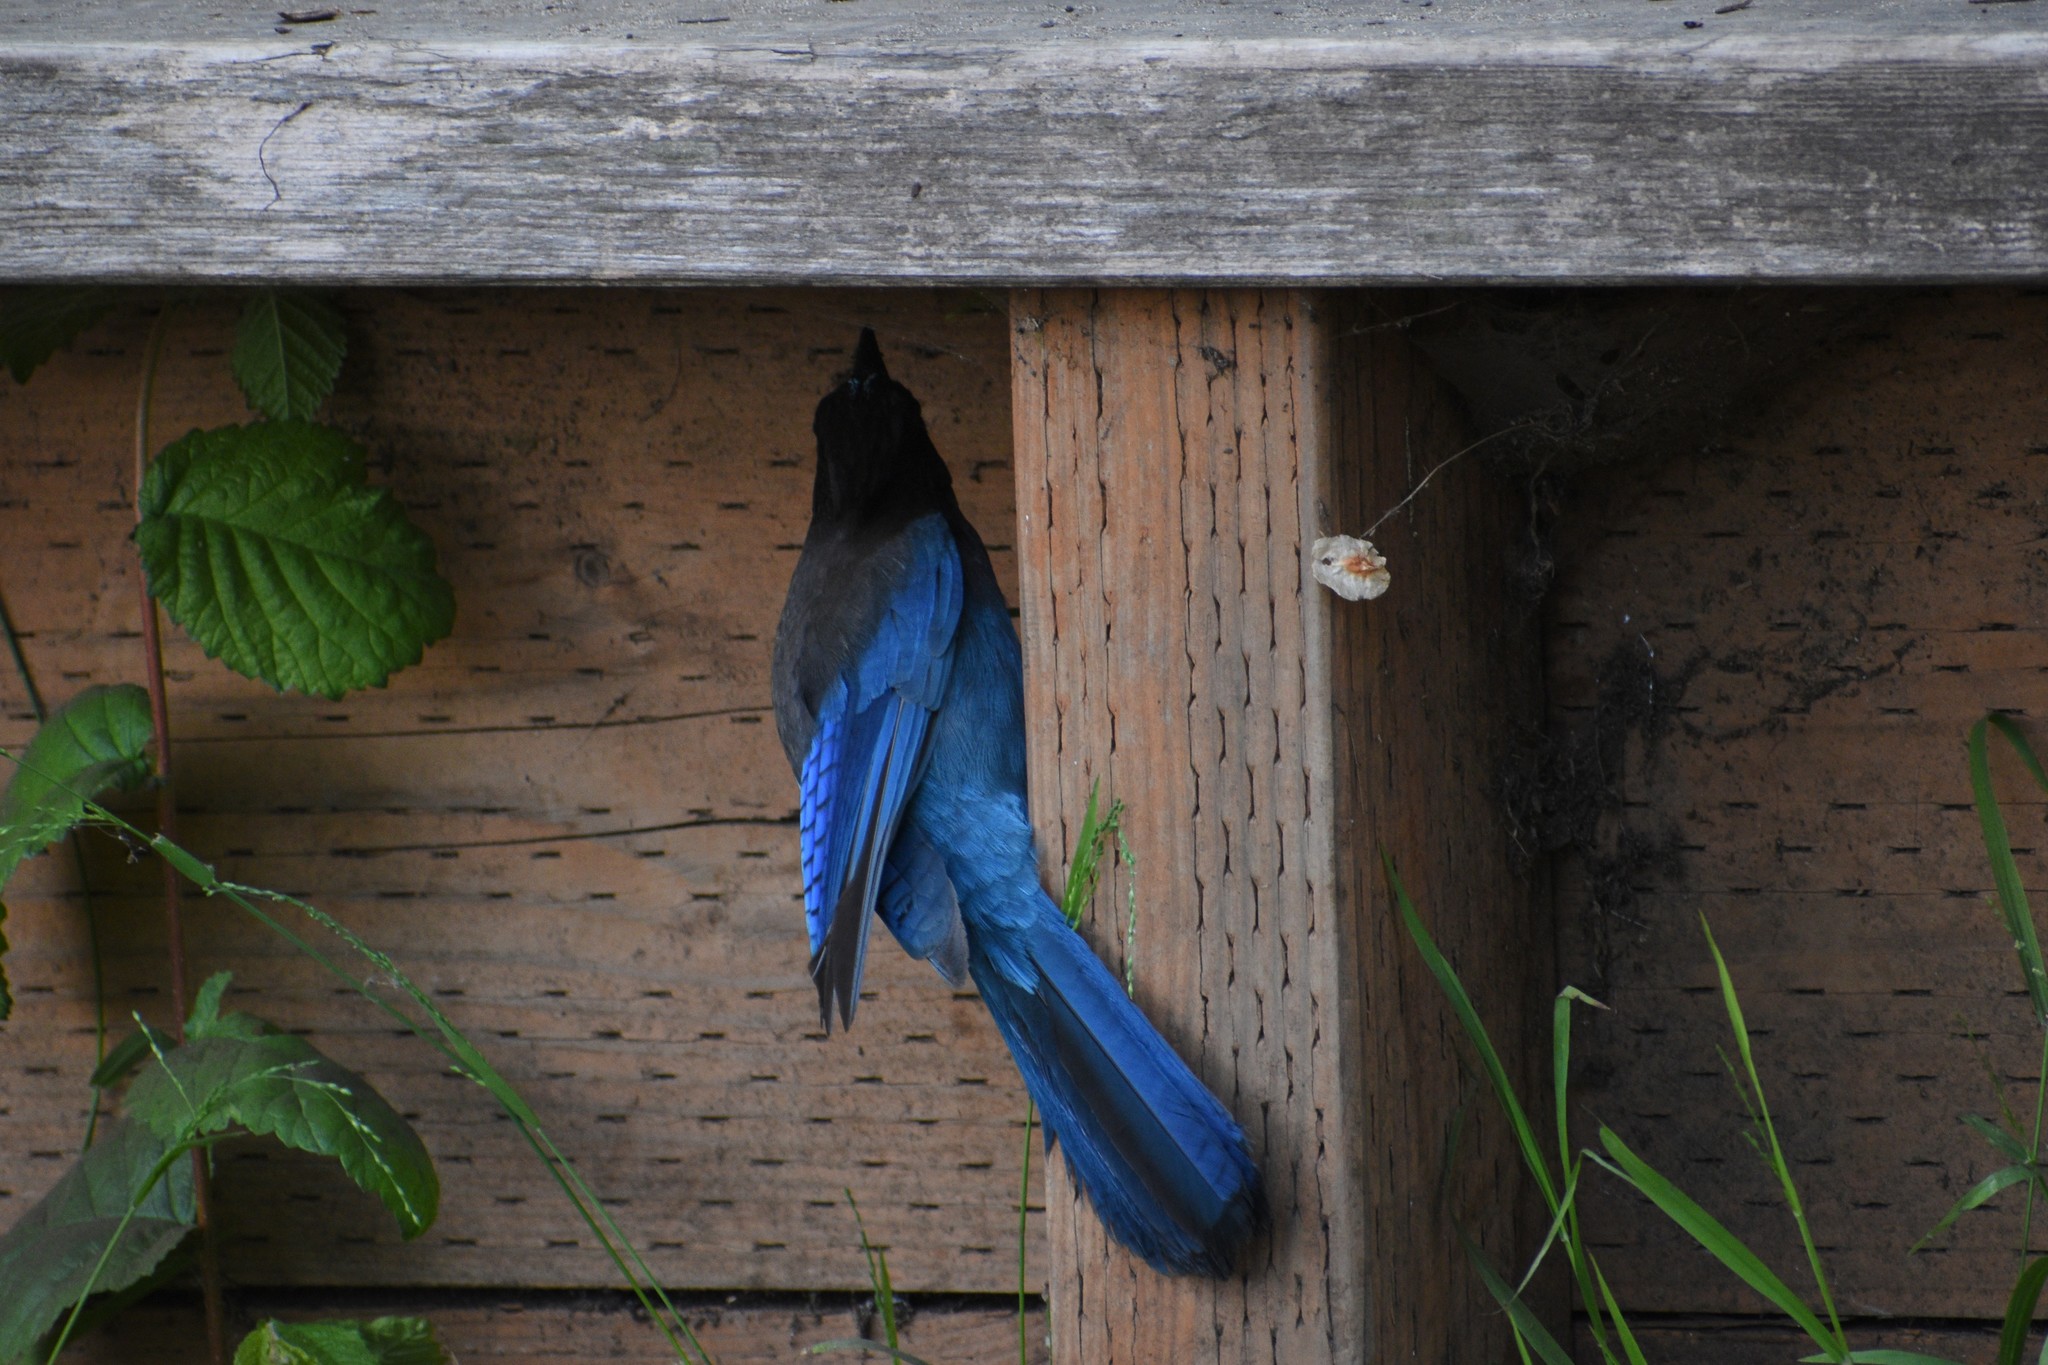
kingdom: Animalia
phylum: Chordata
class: Aves
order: Passeriformes
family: Corvidae
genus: Cyanocitta
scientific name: Cyanocitta stelleri
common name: Steller's jay
